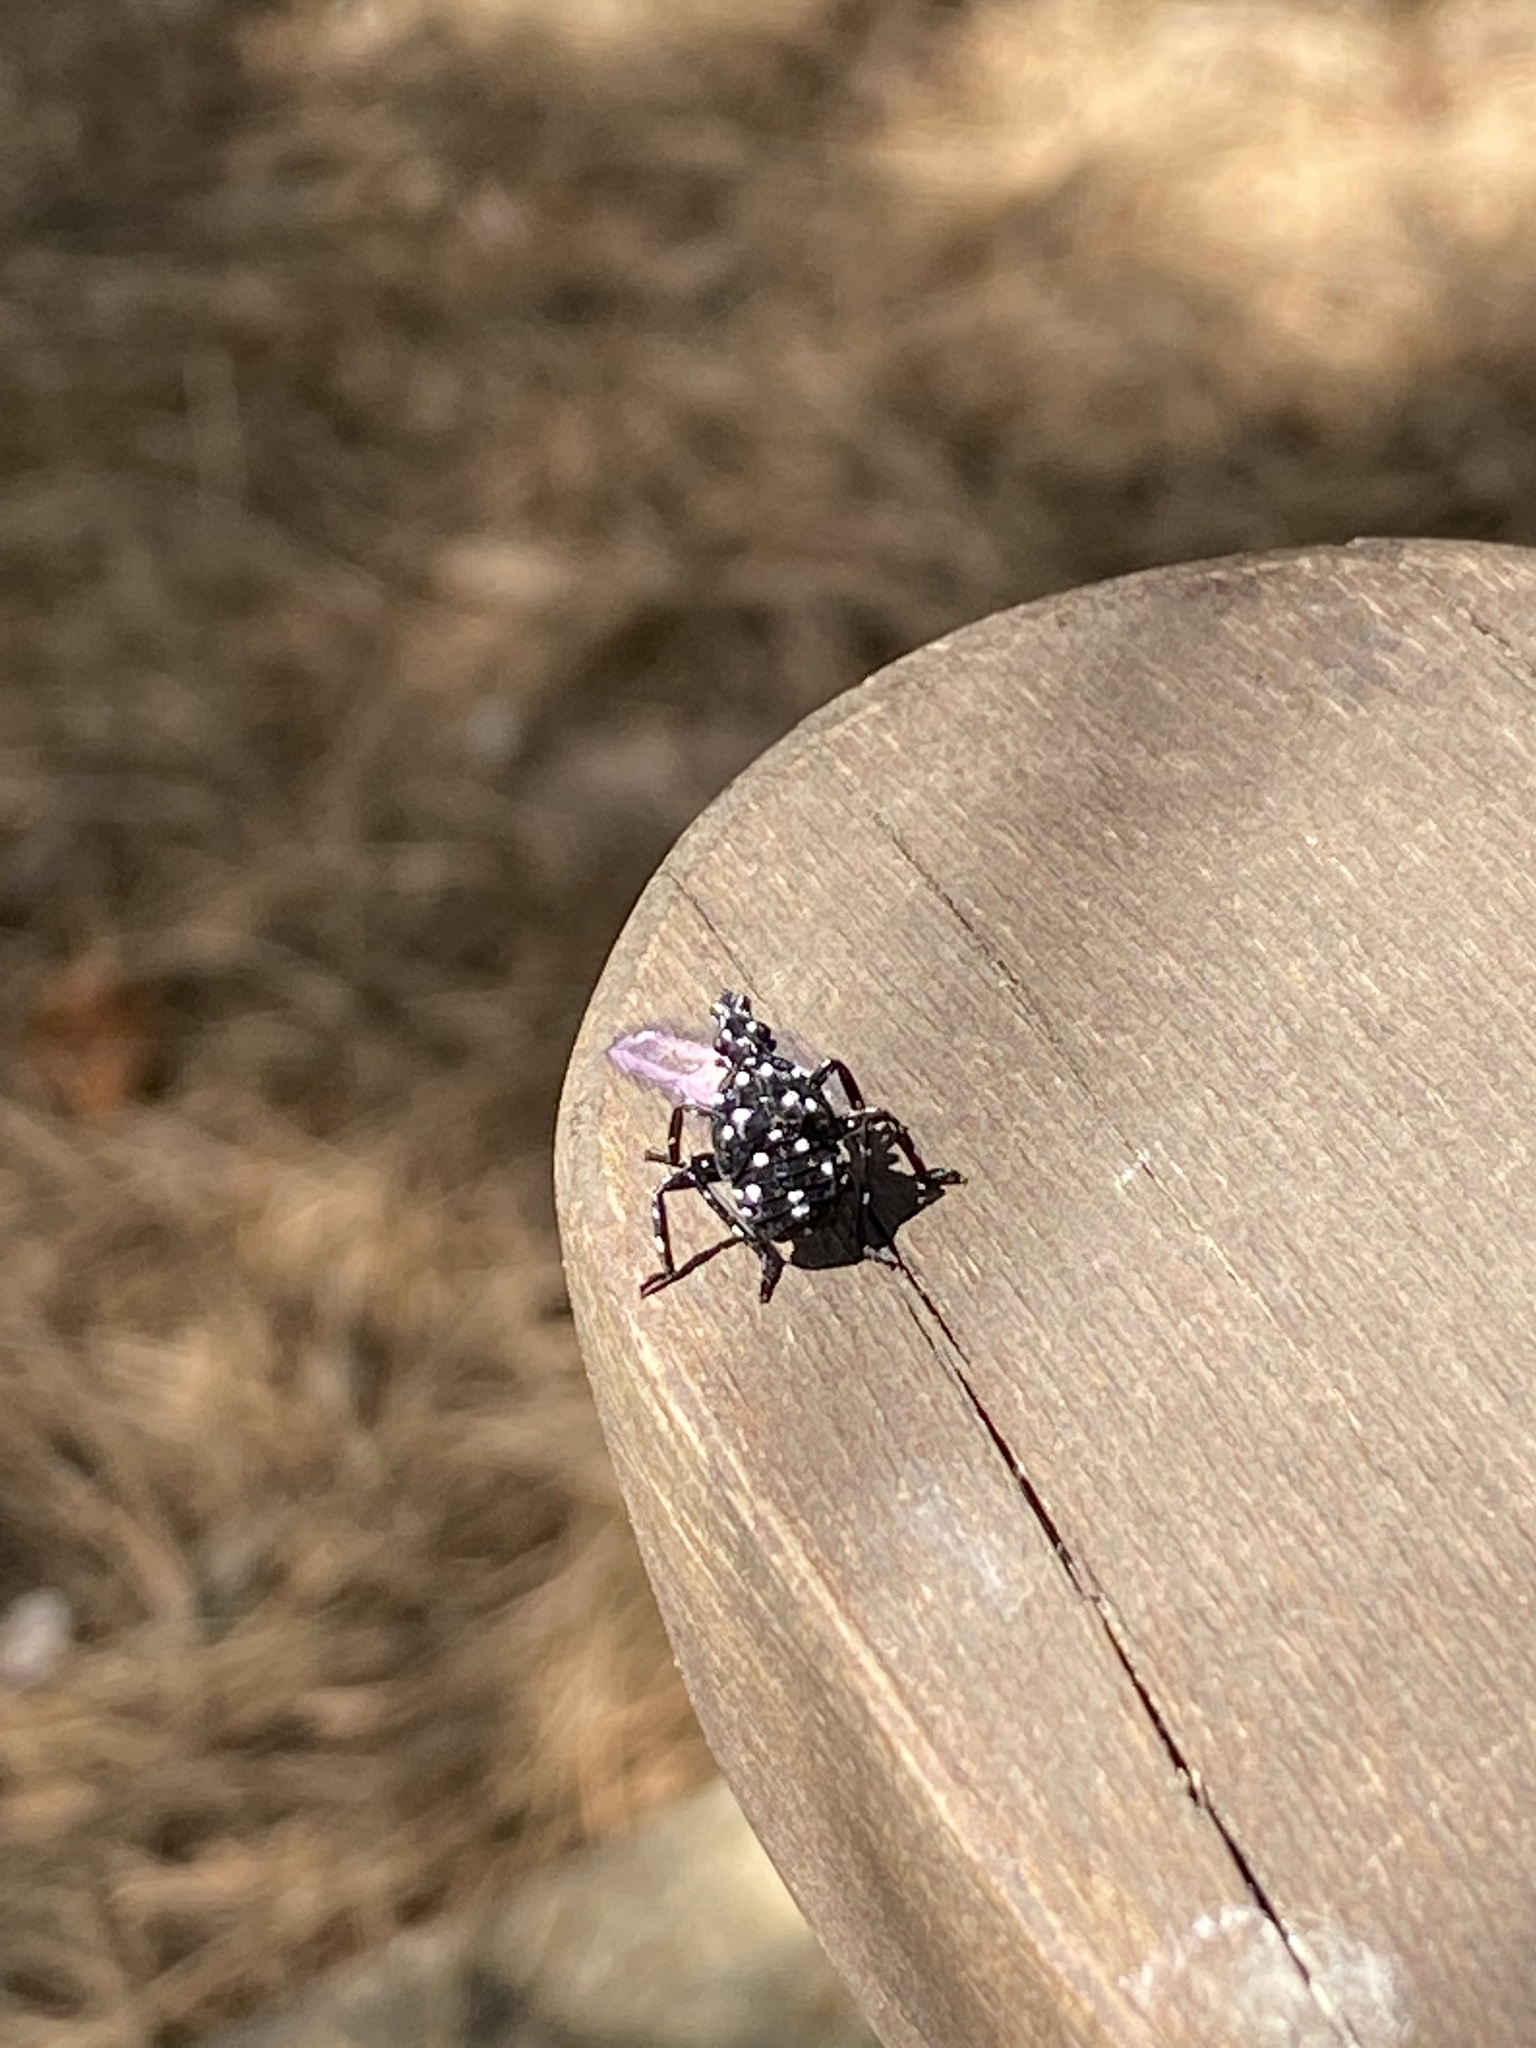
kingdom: Animalia
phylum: Arthropoda
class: Insecta
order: Hemiptera
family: Fulgoridae
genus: Lycorma
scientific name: Lycorma delicatula
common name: Spotted lanternfly
